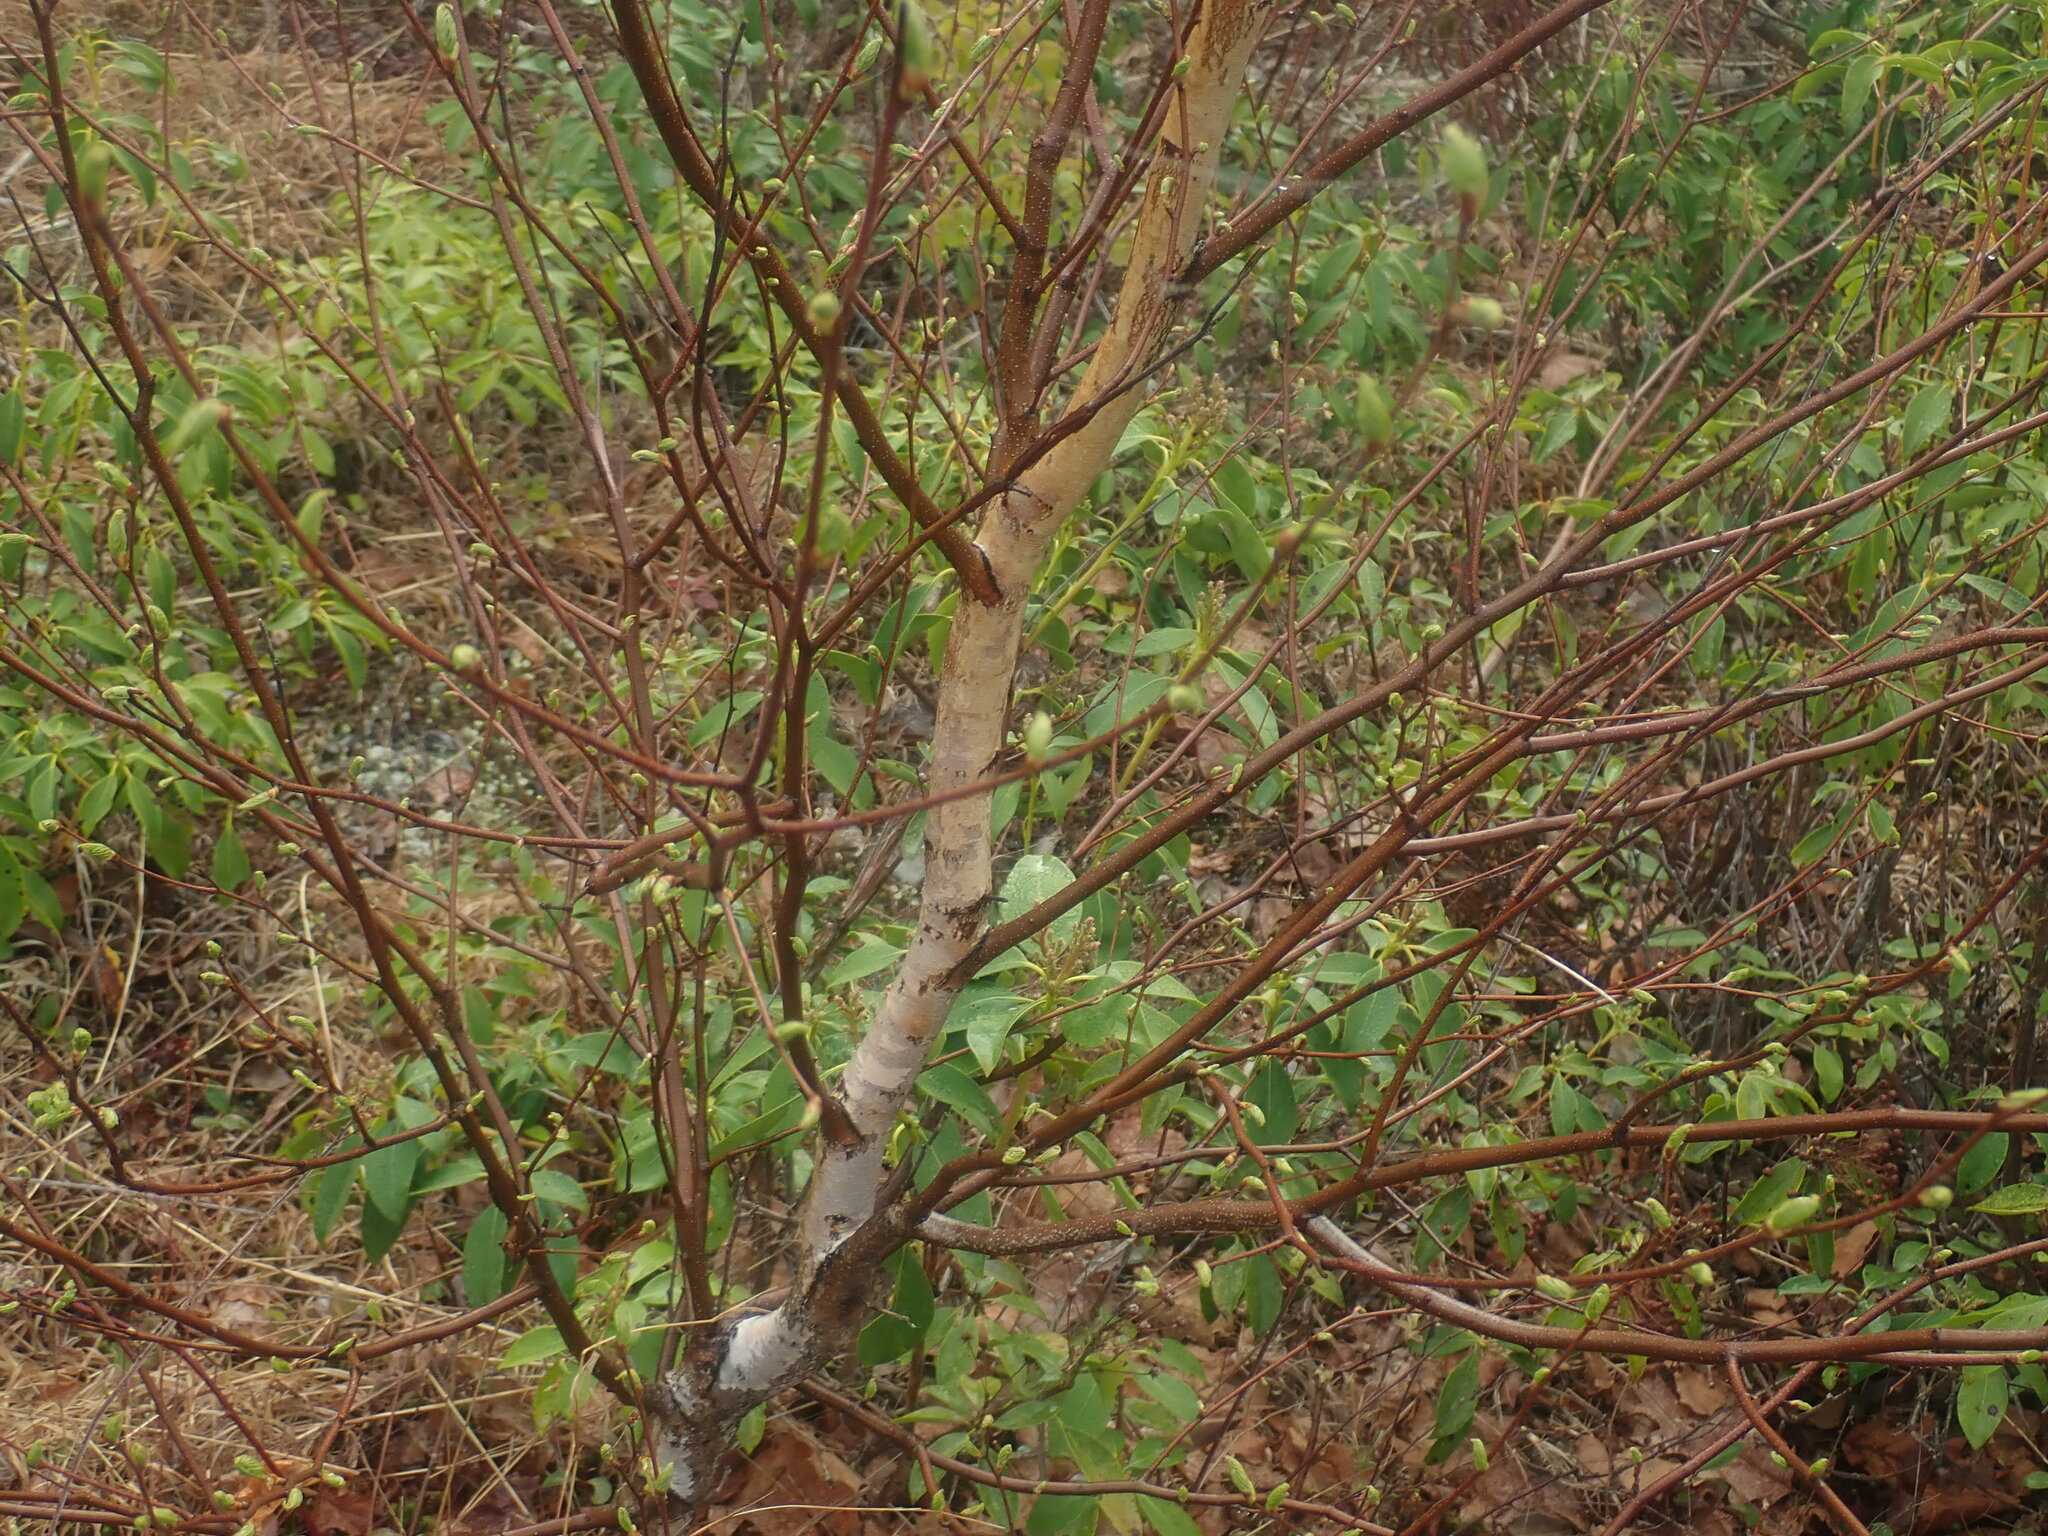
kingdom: Plantae
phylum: Tracheophyta
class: Magnoliopsida
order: Fagales
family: Betulaceae
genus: Betula
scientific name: Betula populifolia
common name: Fire birch
